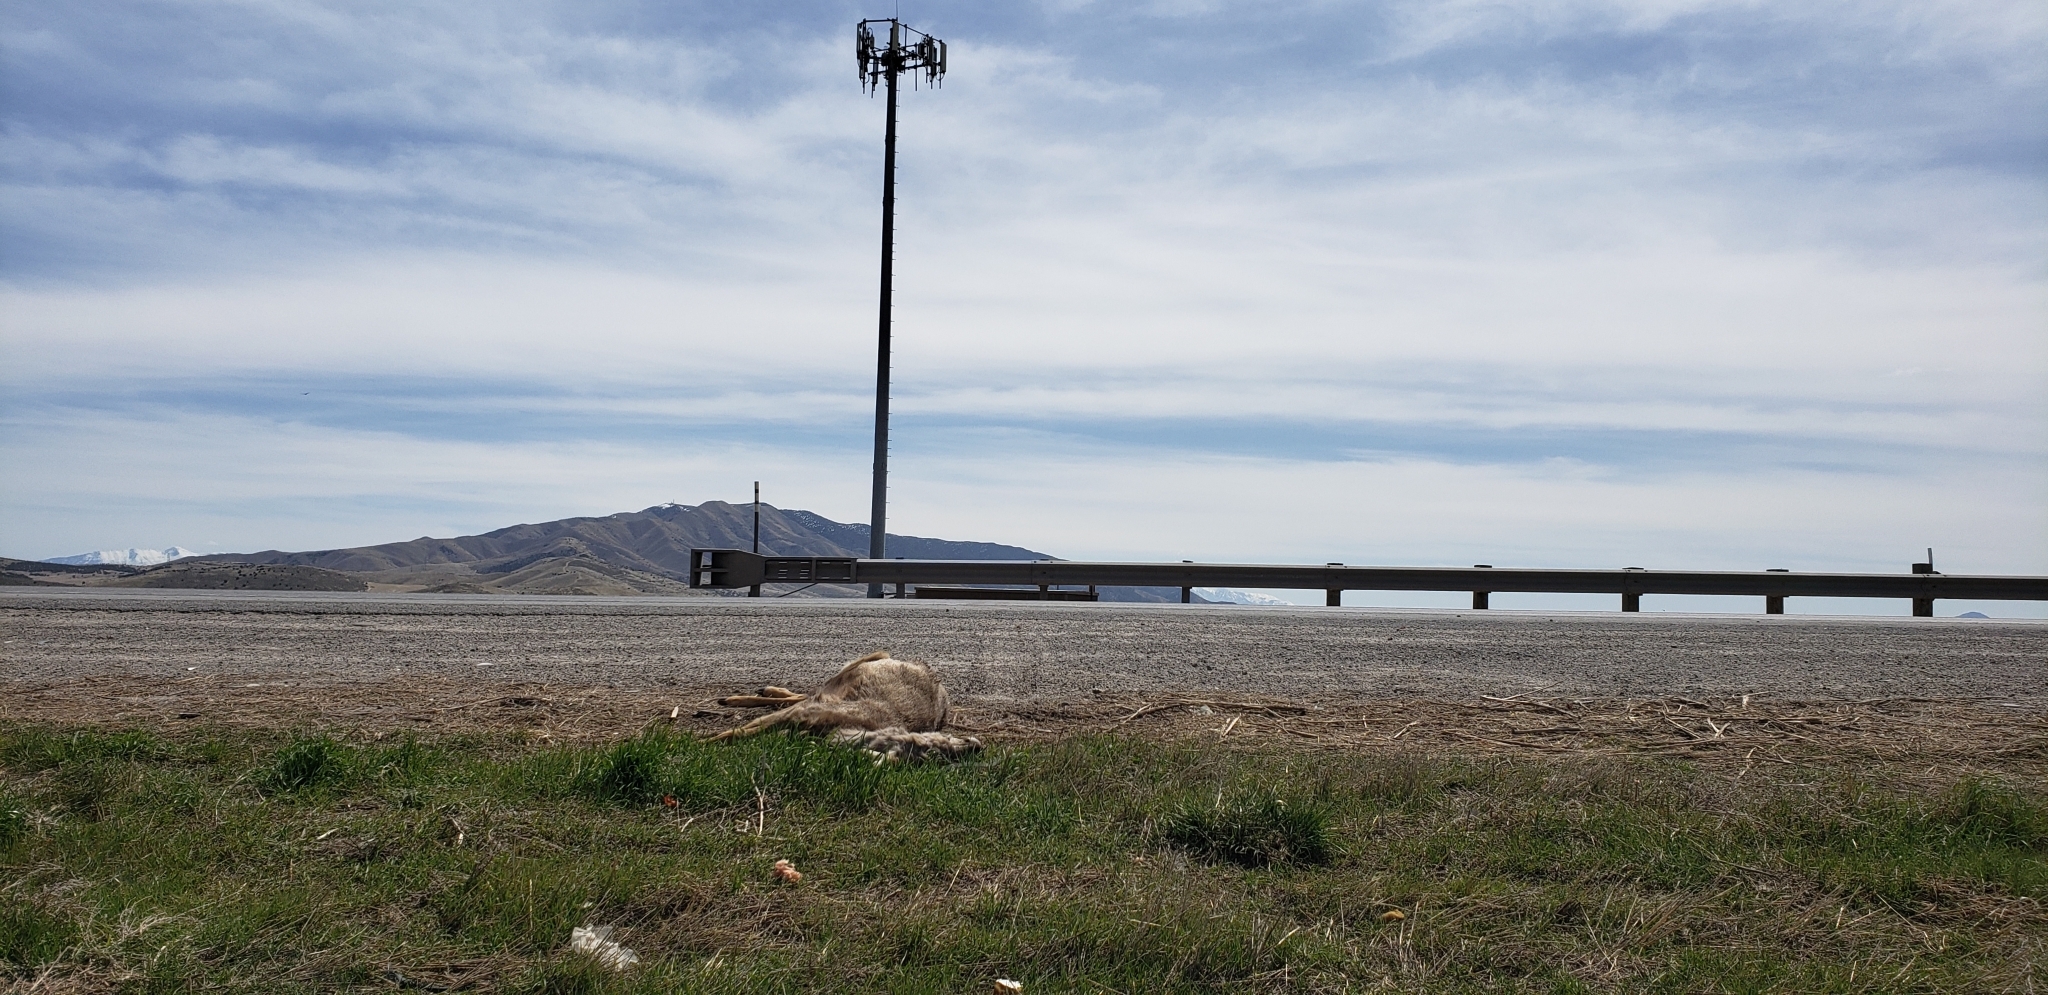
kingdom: Animalia
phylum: Chordata
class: Mammalia
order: Artiodactyla
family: Cervidae
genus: Odocoileus
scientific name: Odocoileus hemionus
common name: Mule deer
